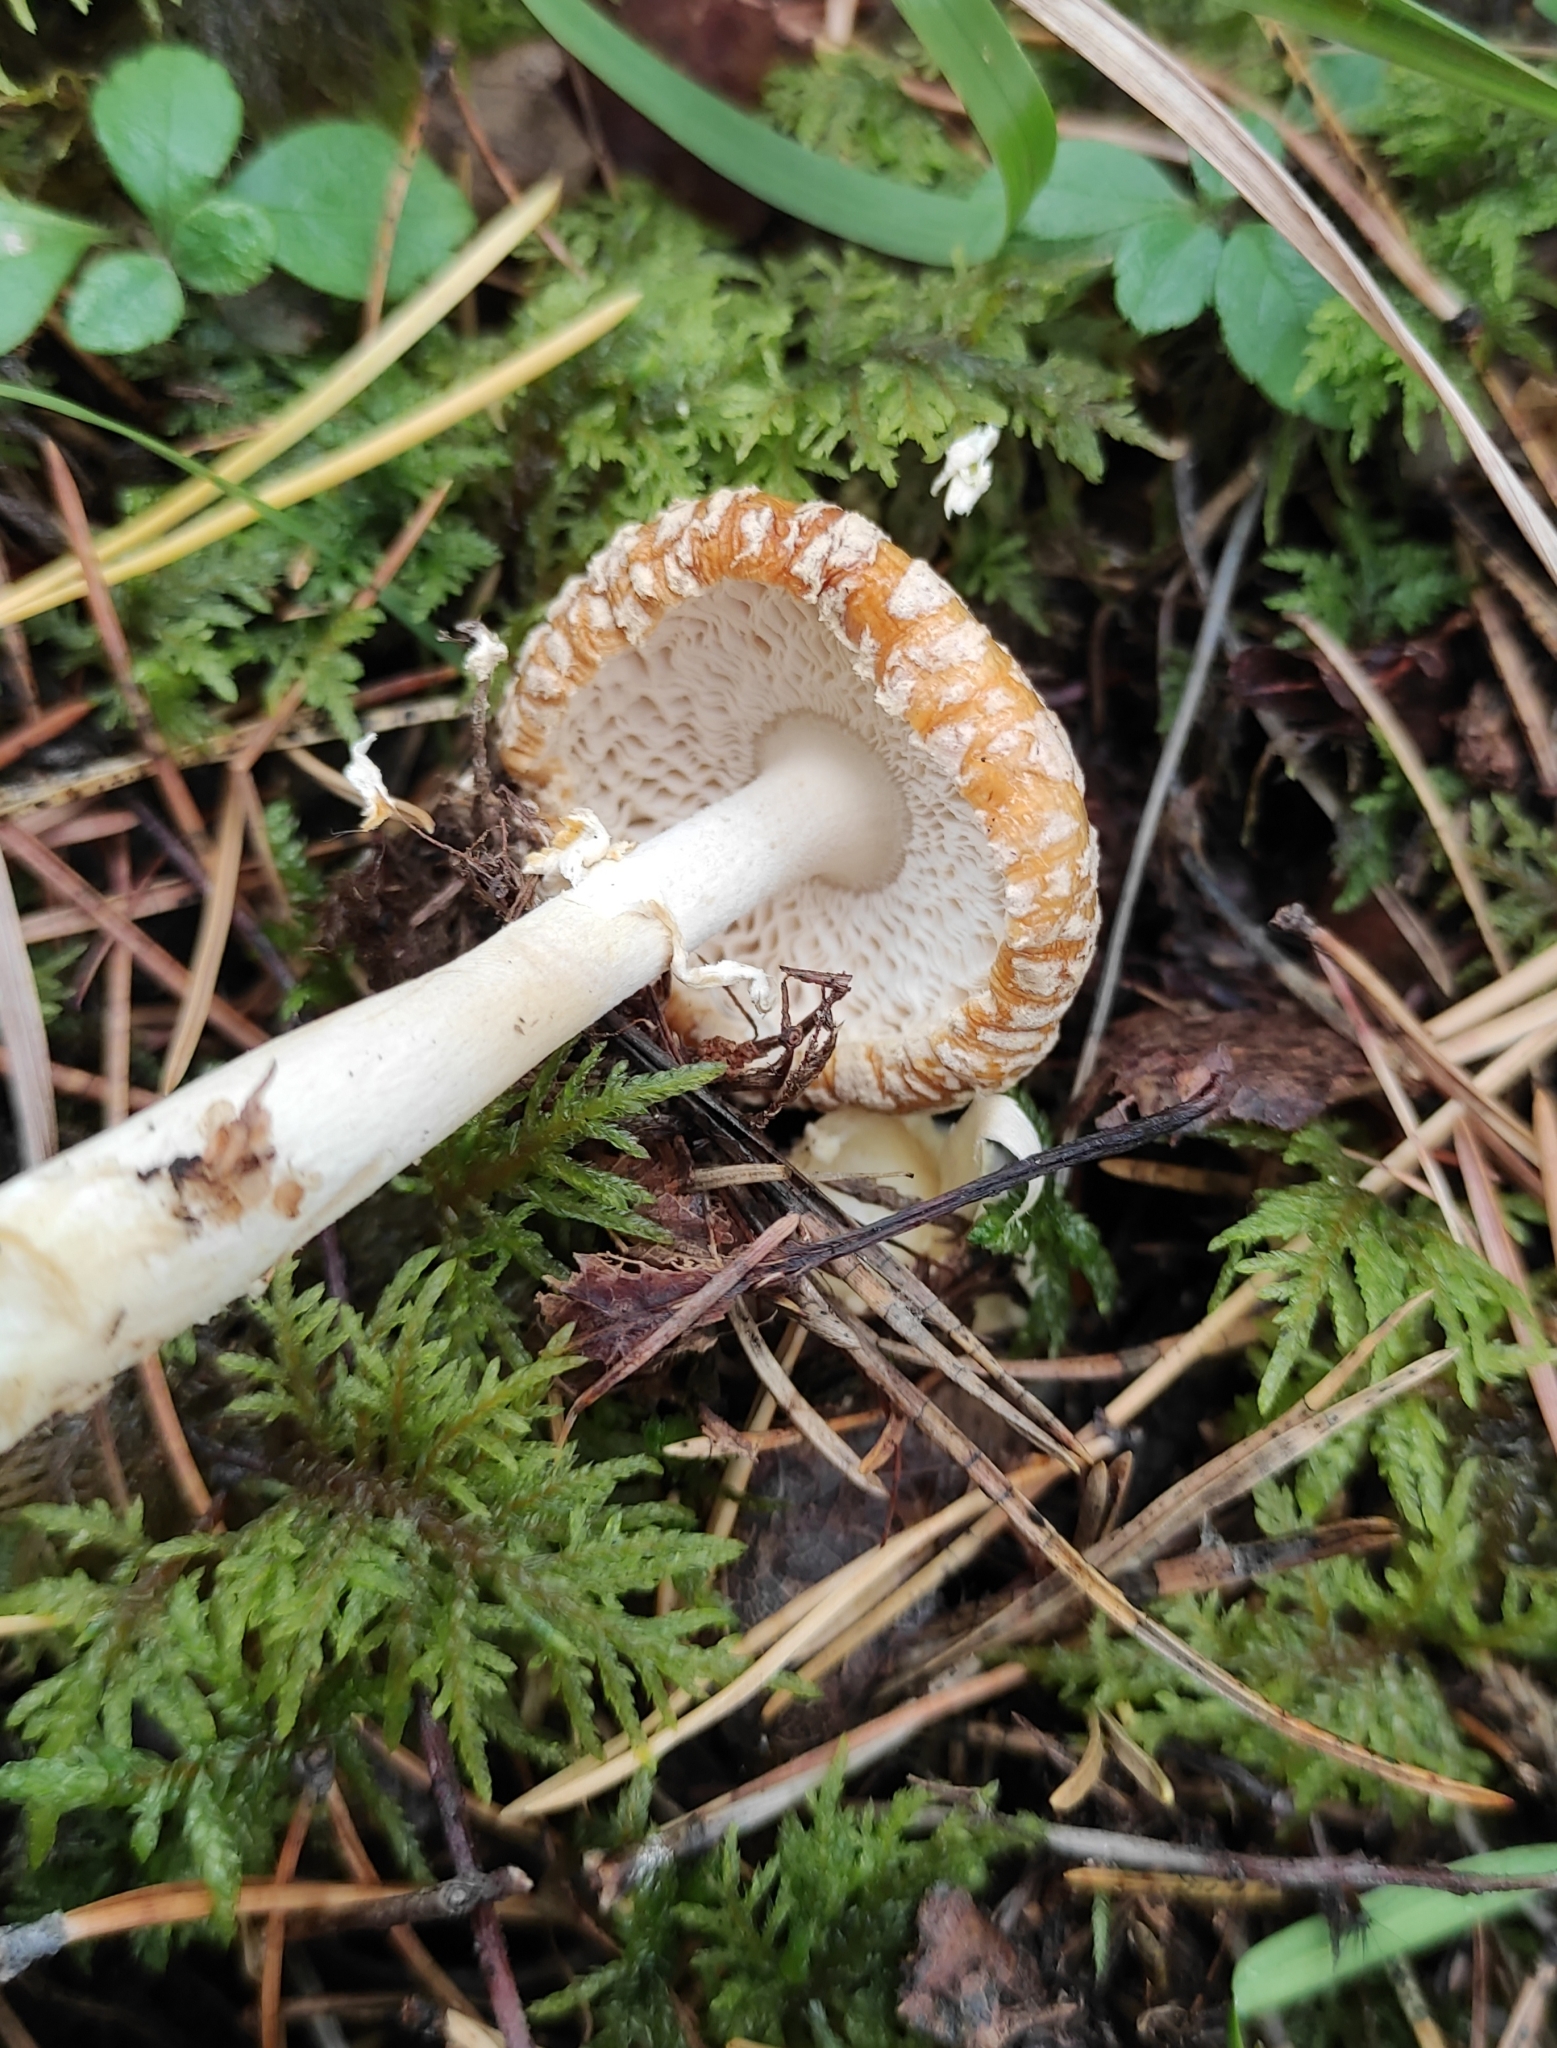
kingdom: Fungi
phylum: Basidiomycota
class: Agaricomycetes
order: Agaricales
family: Amanitaceae
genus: Amanita
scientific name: Amanita regalis
